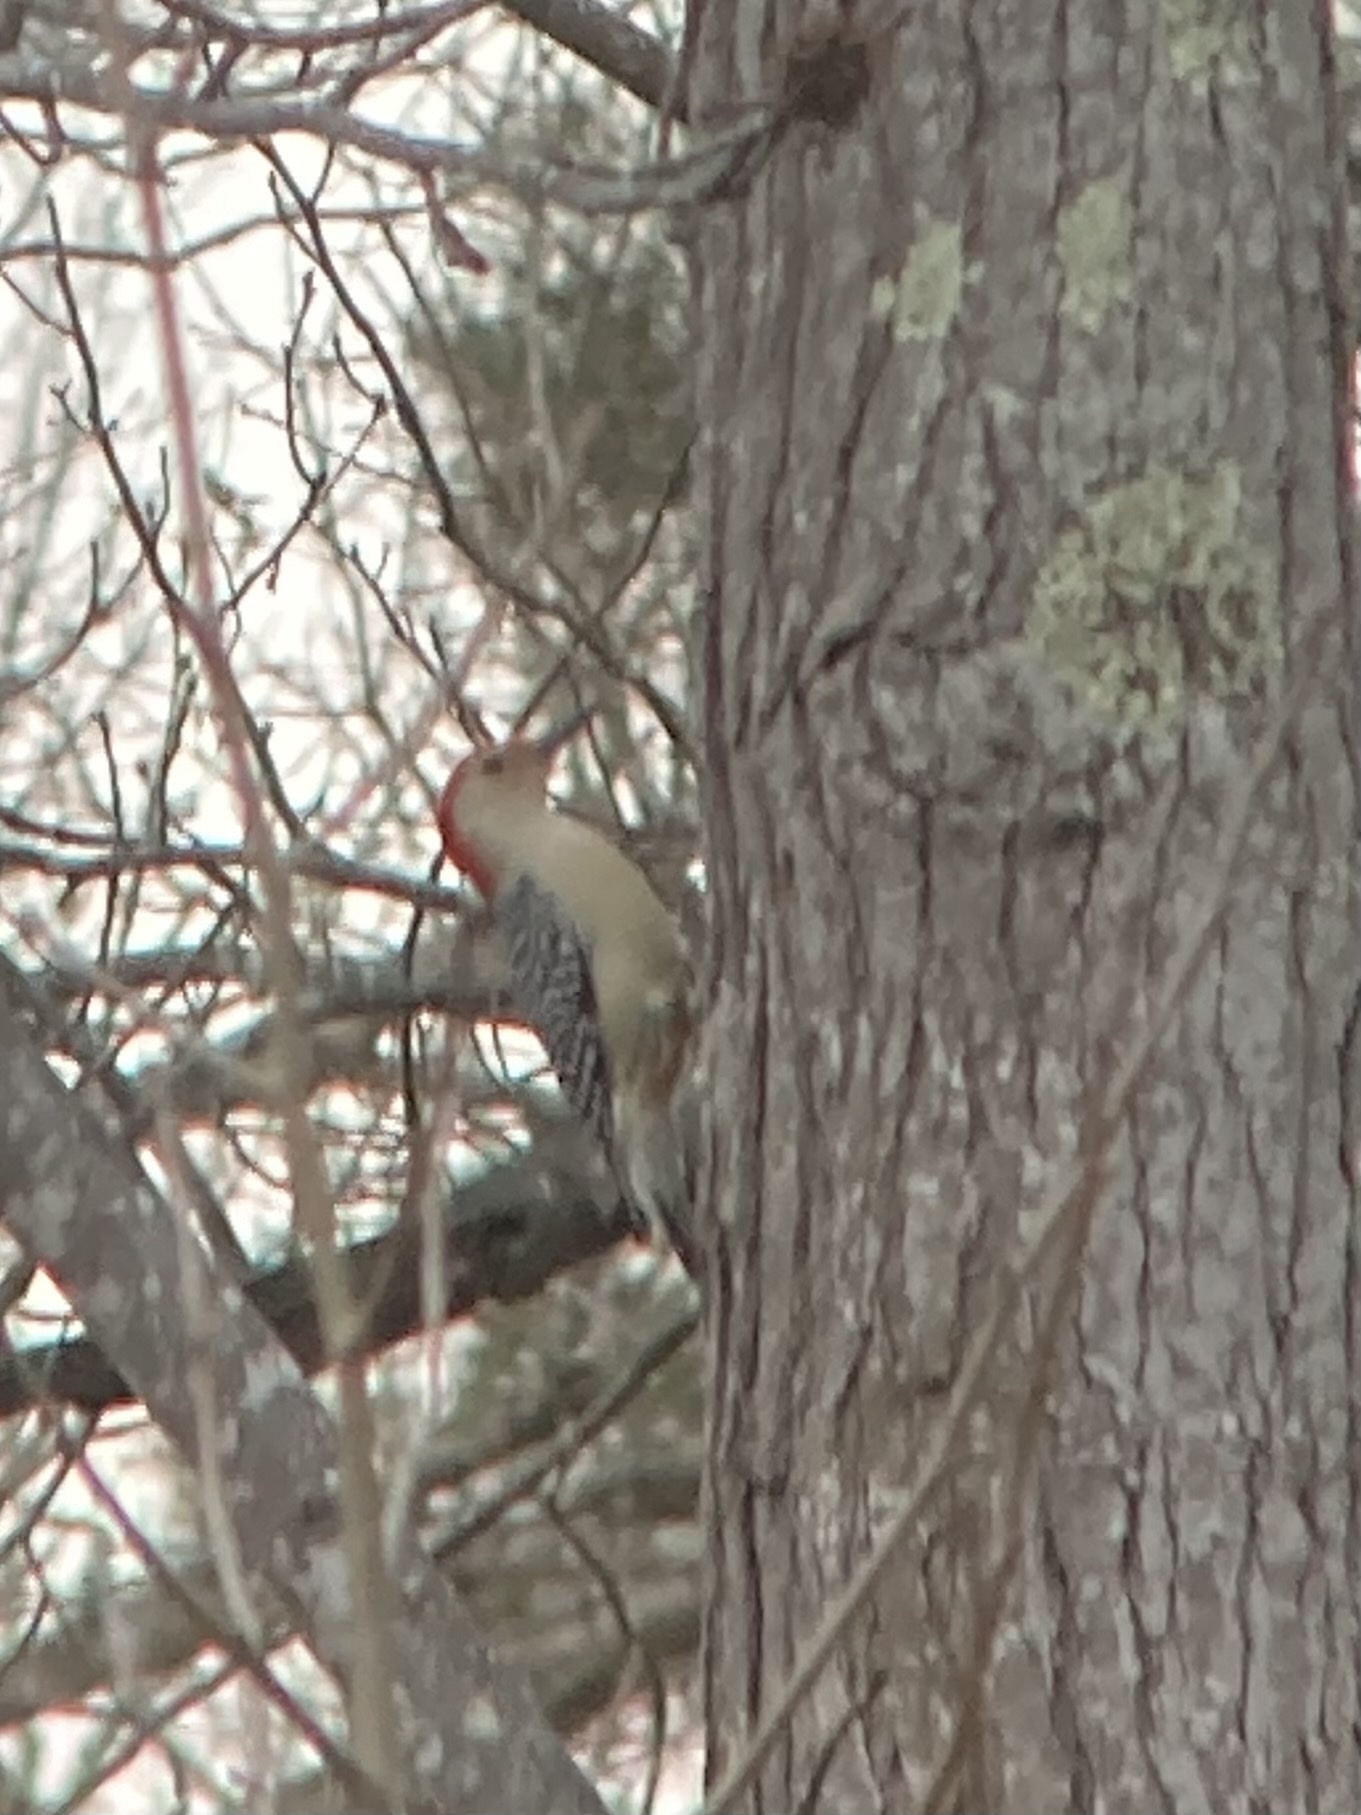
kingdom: Animalia
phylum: Chordata
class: Aves
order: Piciformes
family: Picidae
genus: Melanerpes
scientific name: Melanerpes carolinus
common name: Red-bellied woodpecker
